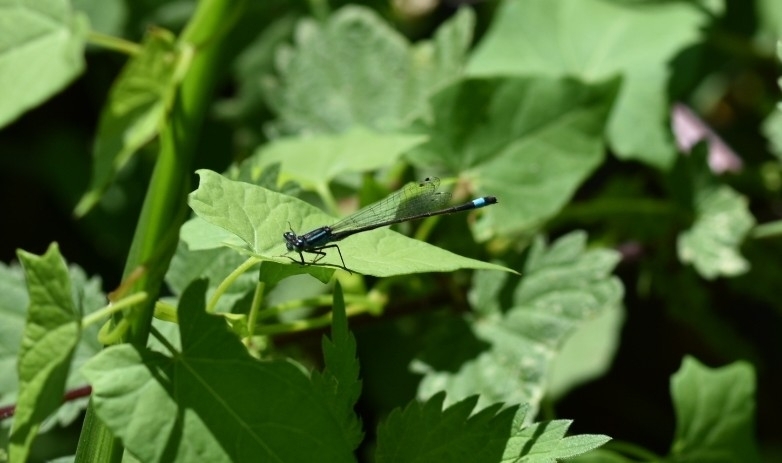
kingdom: Animalia
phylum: Arthropoda
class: Insecta
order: Odonata
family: Coenagrionidae
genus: Ischnura
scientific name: Ischnura elegans
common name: Blue-tailed damselfly
